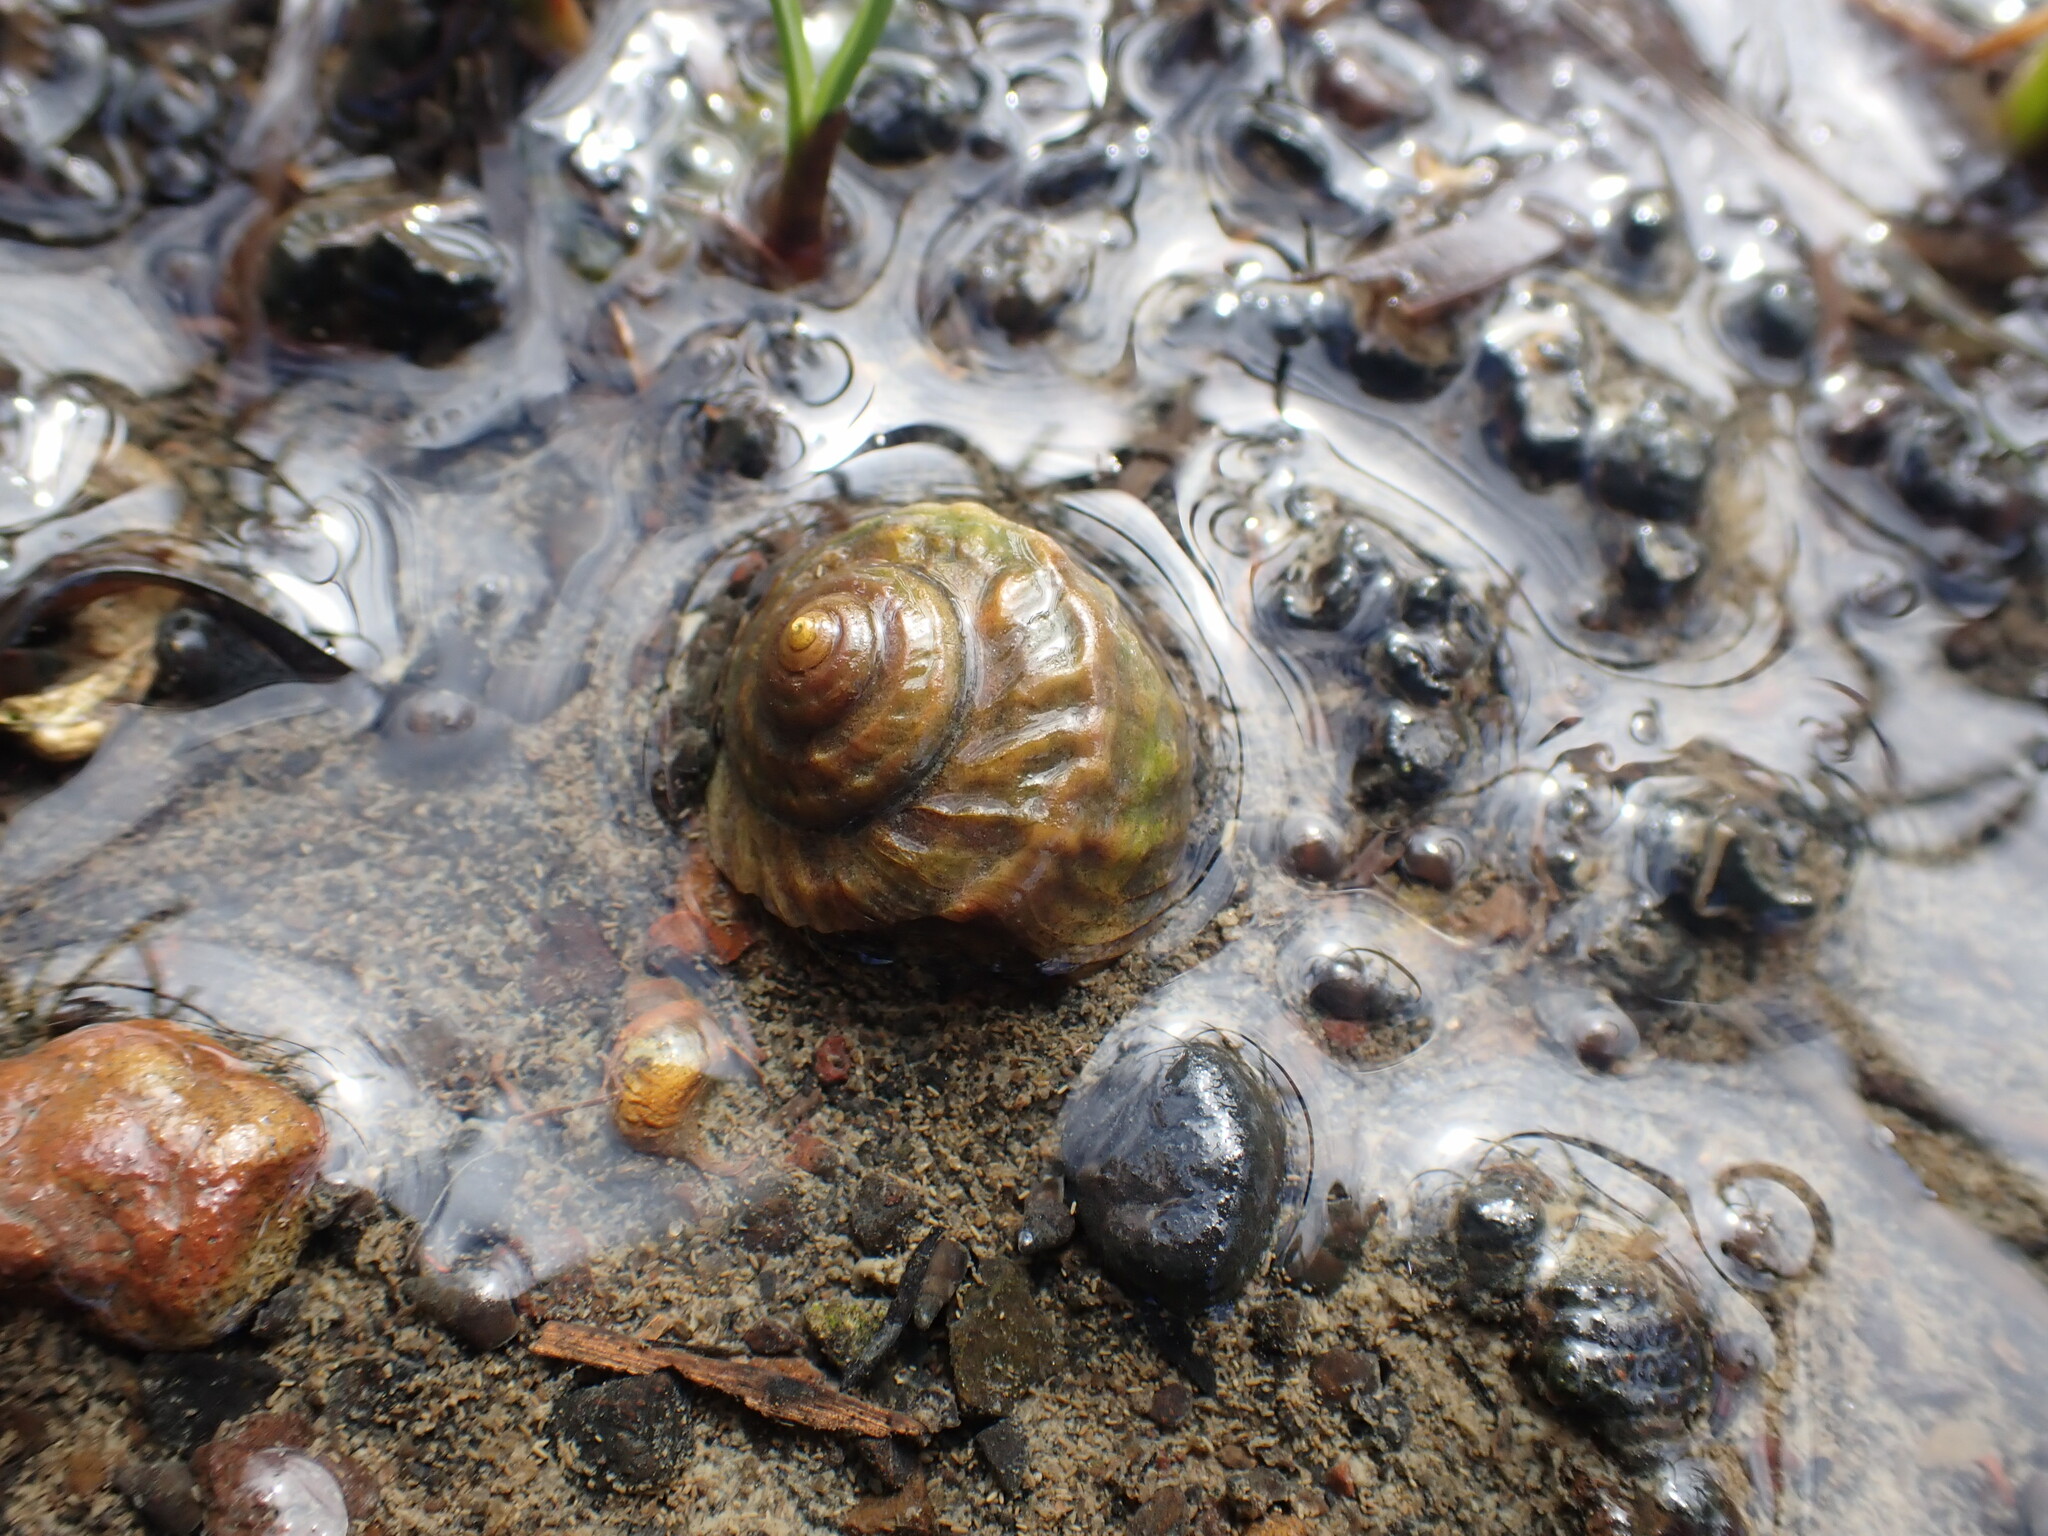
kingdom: Animalia
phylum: Mollusca
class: Gastropoda
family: Amphibolidae
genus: Amphibola
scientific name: Amphibola crenata
